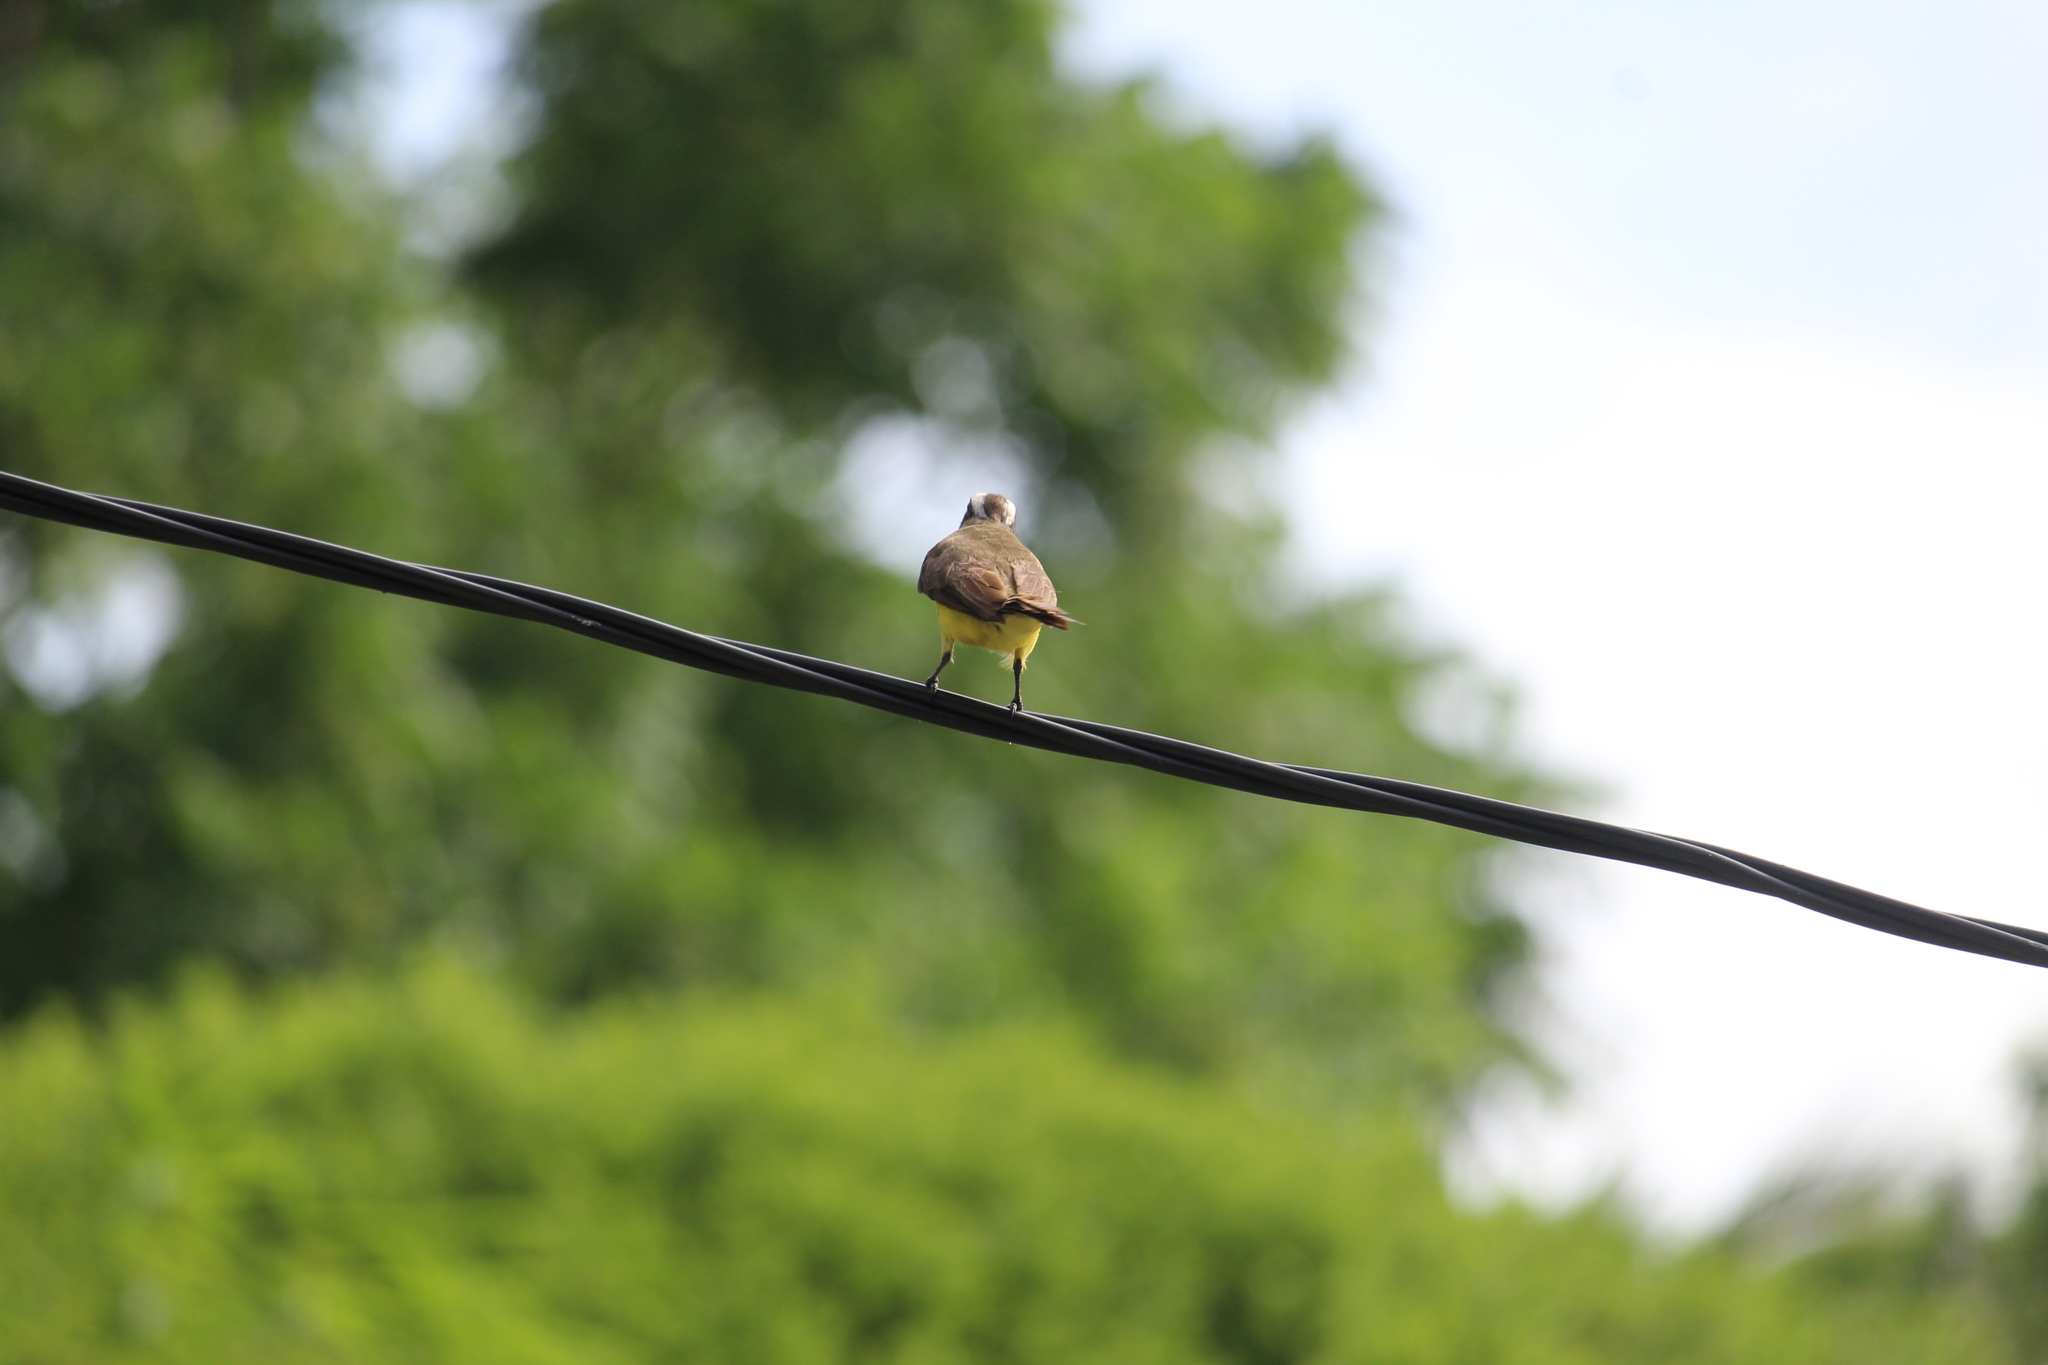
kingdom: Animalia
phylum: Chordata
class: Aves
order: Passeriformes
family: Tyrannidae
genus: Myiozetetes
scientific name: Myiozetetes similis
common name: Social flycatcher
